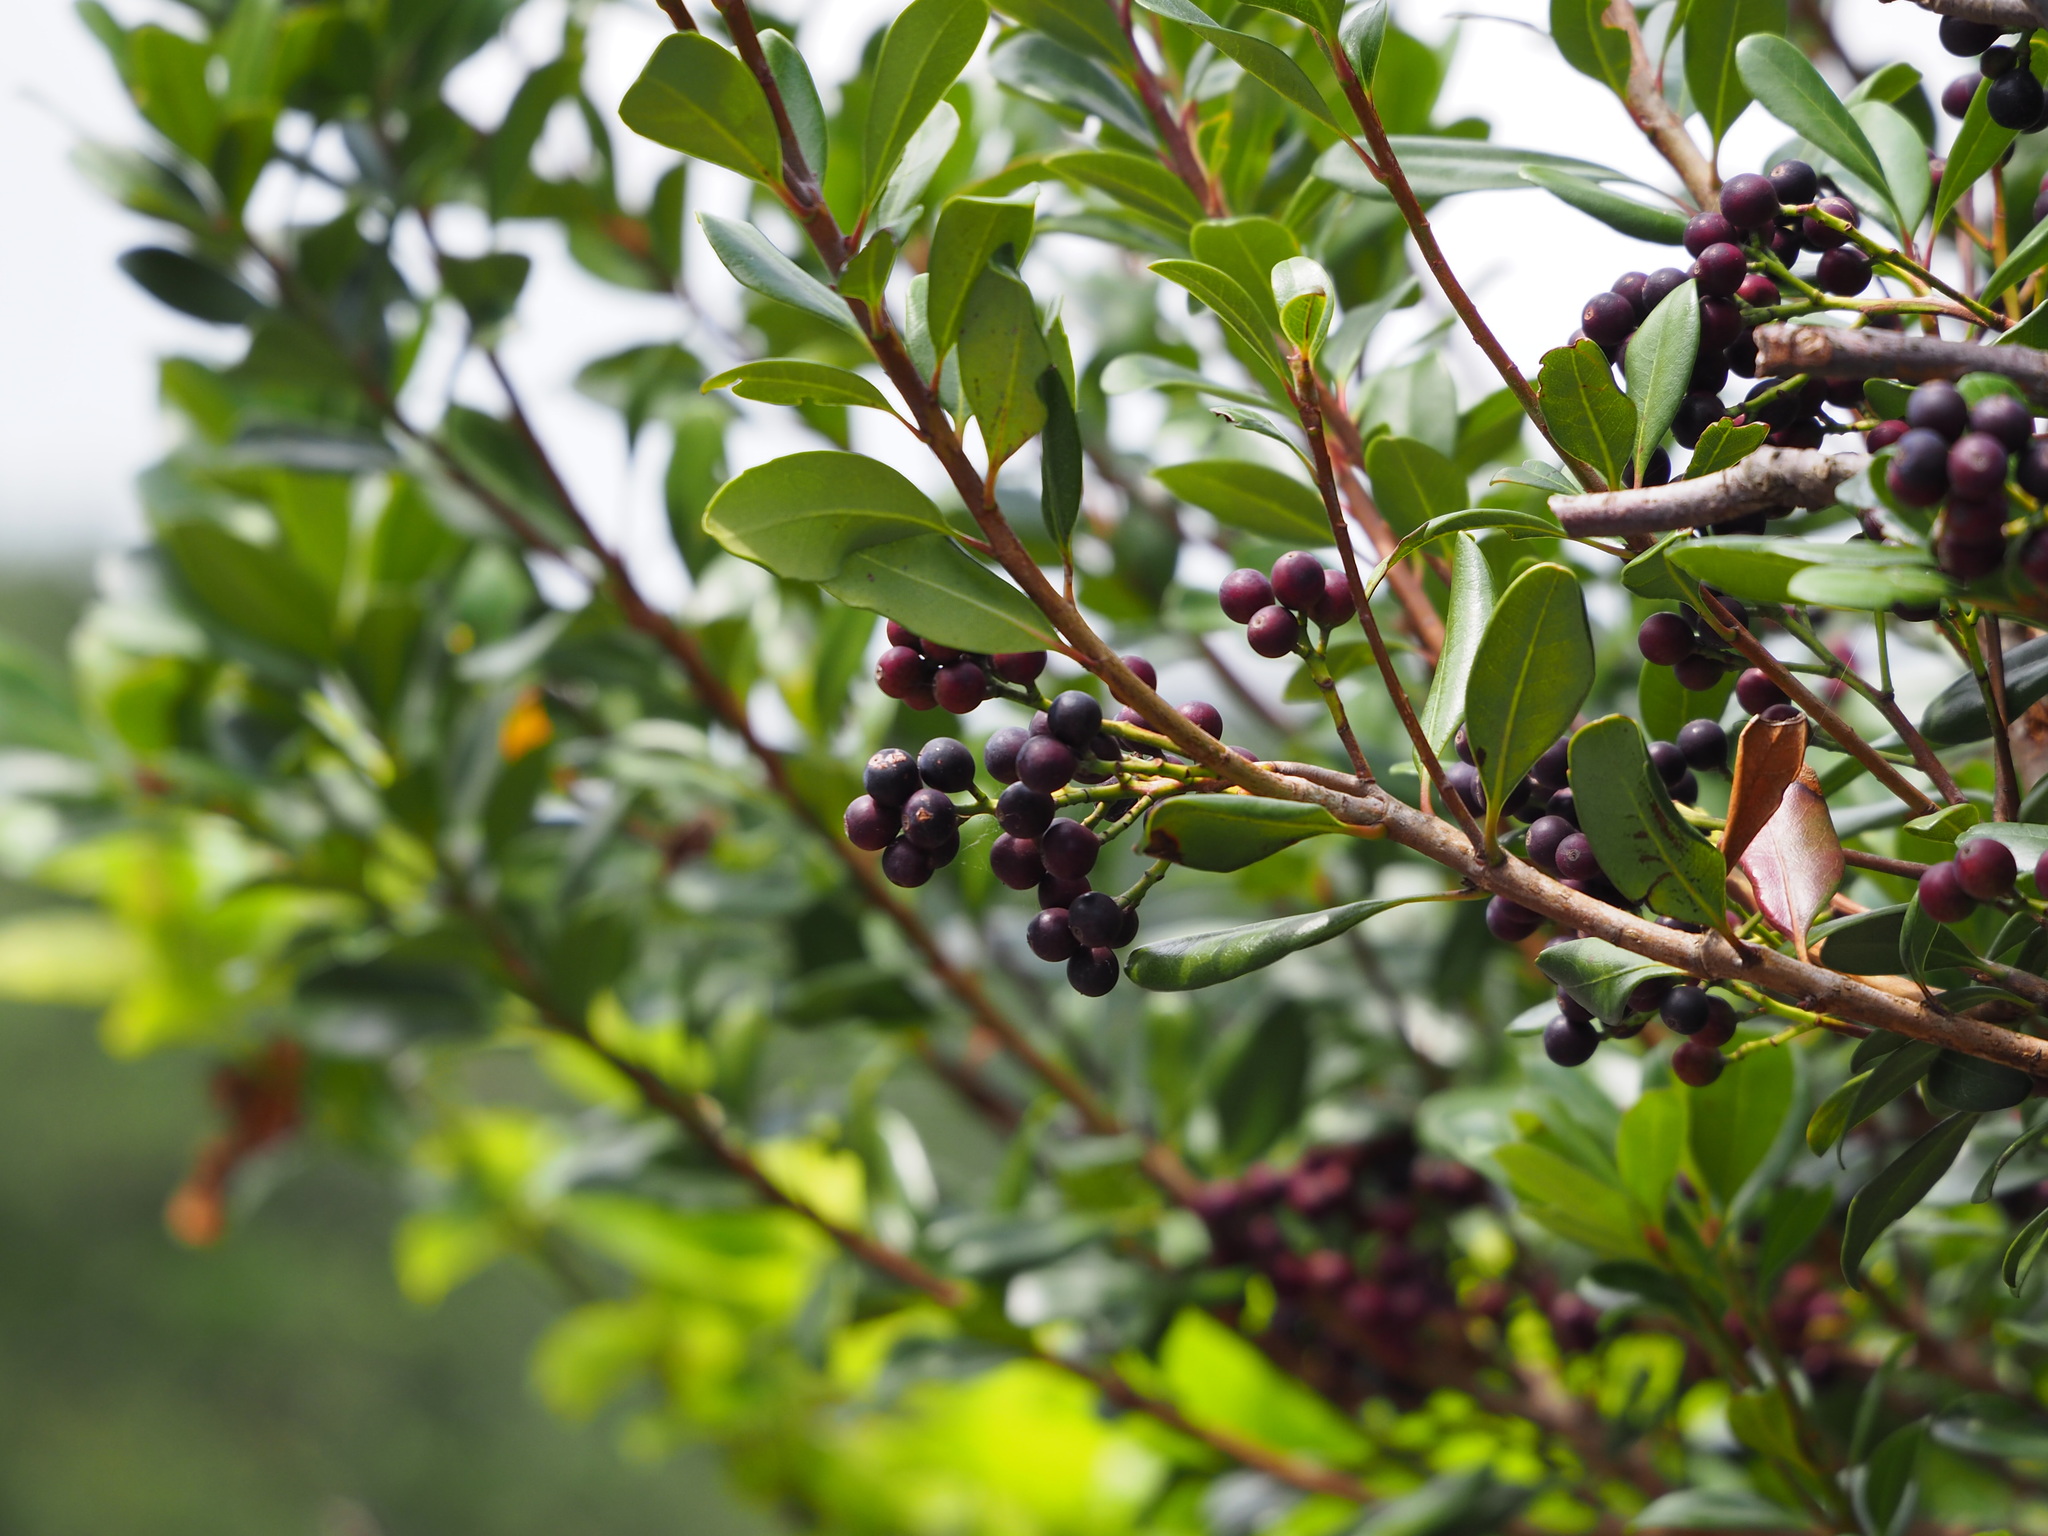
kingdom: Plantae
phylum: Tracheophyta
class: Magnoliopsida
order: Rosales
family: Rosaceae
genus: Rhaphiolepis
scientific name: Rhaphiolepis umbellata
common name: Yedda-hawthorn
